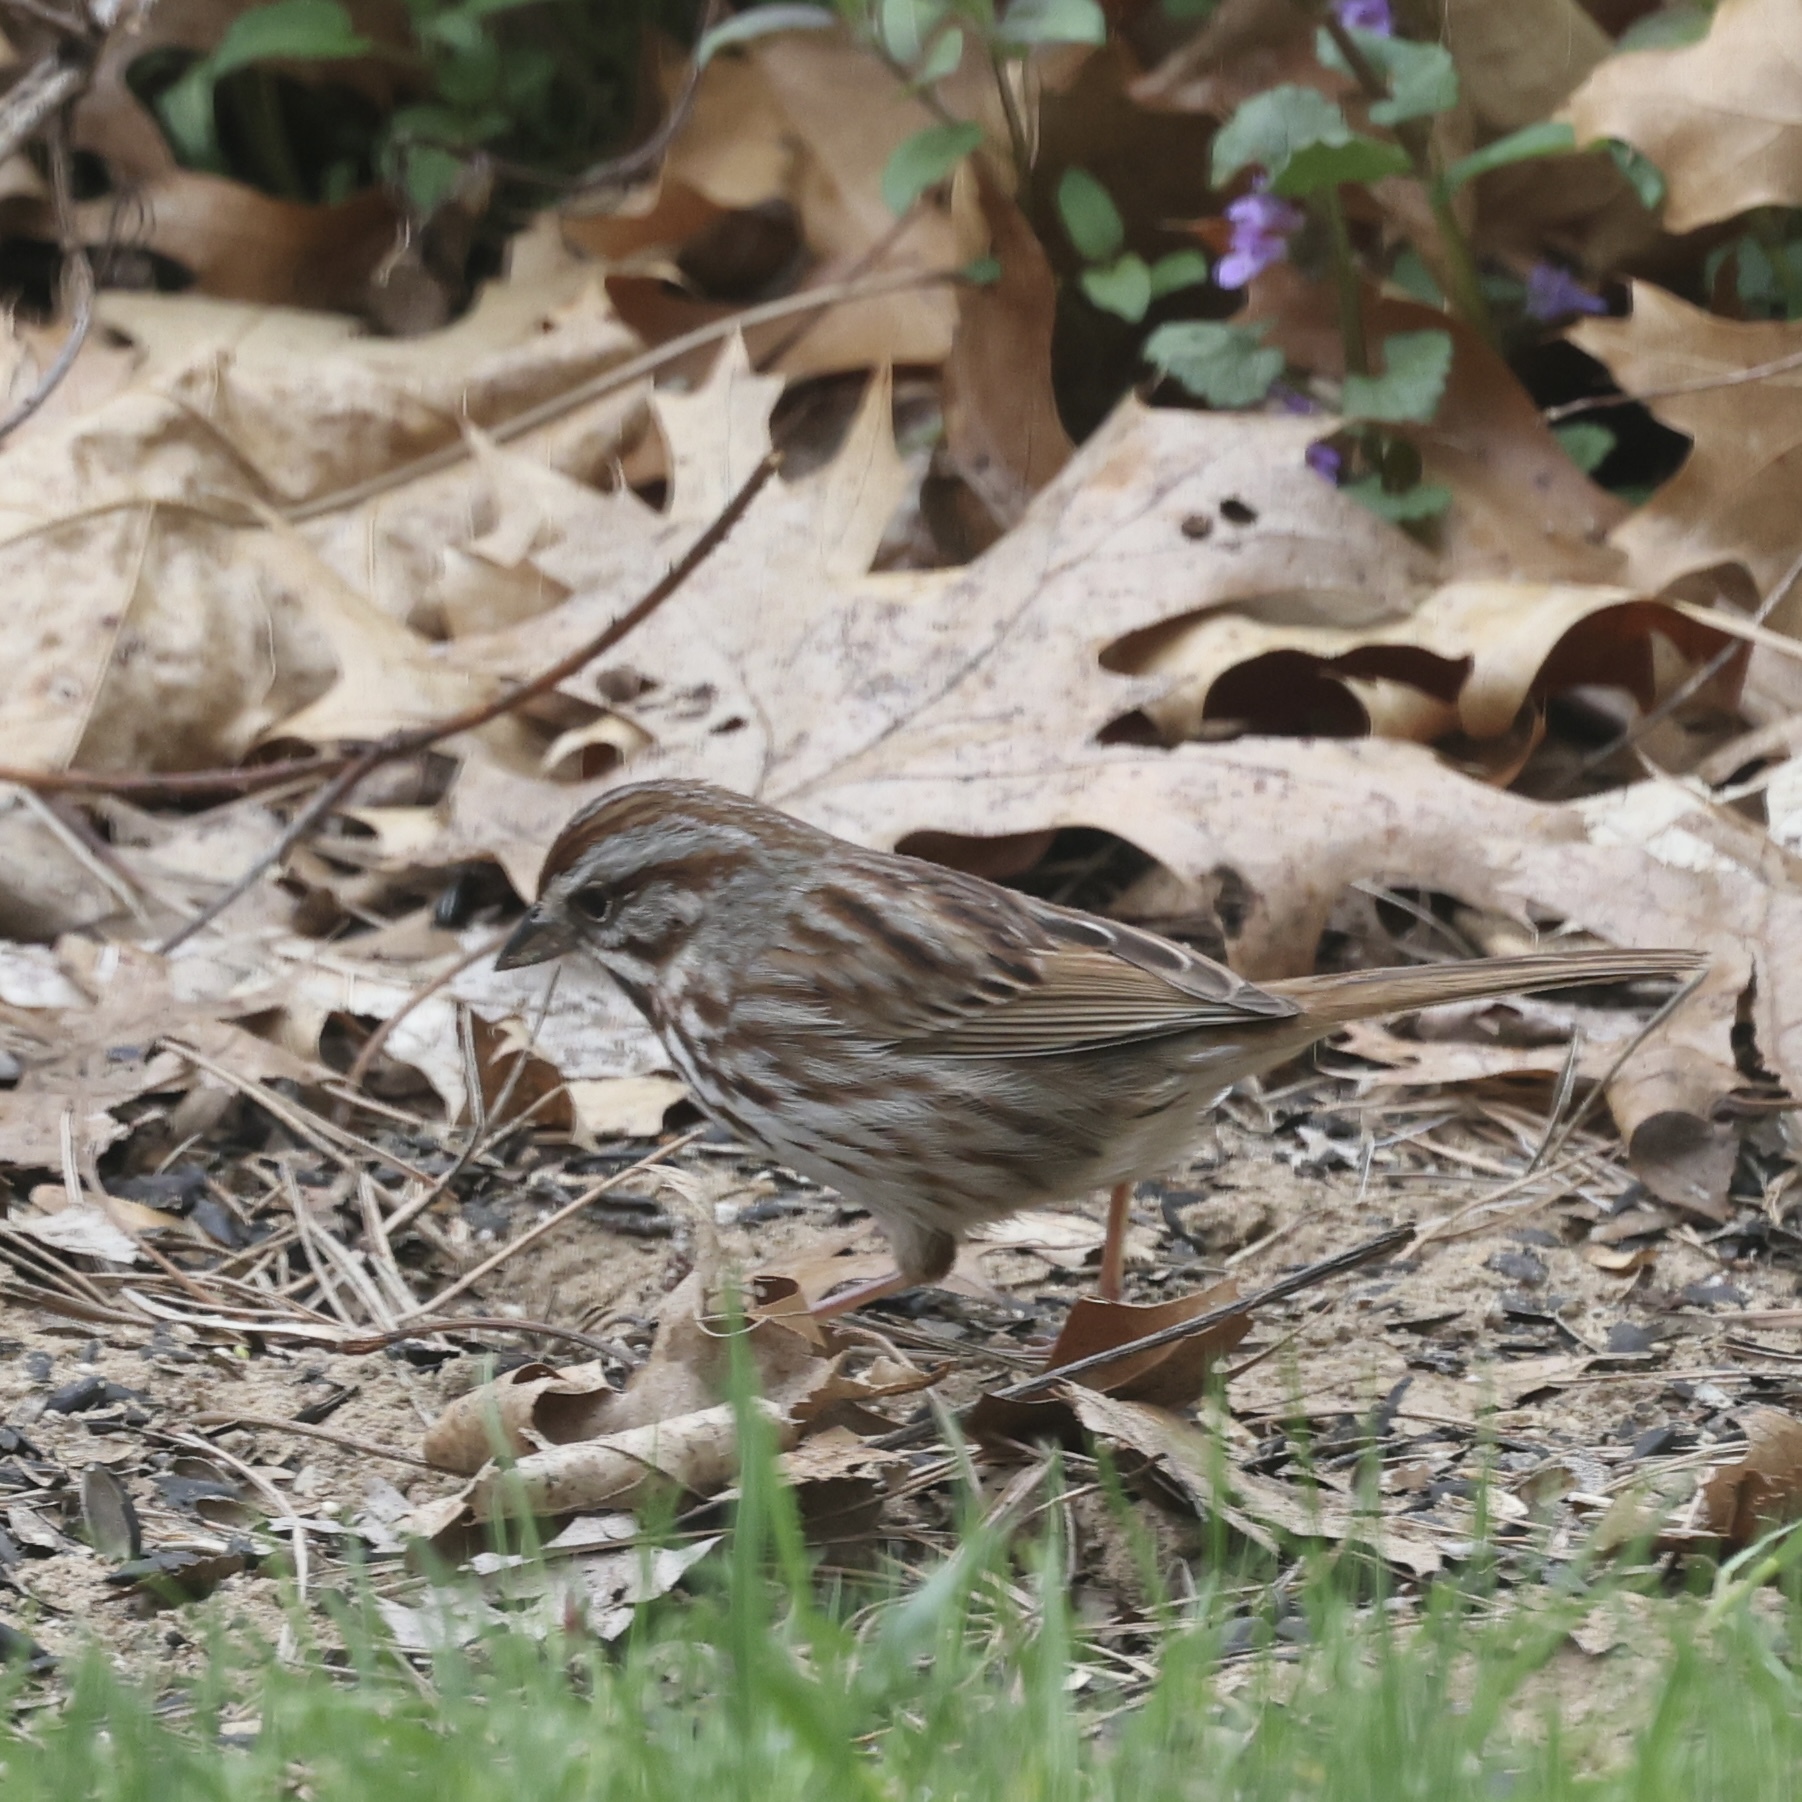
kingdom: Animalia
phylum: Chordata
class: Aves
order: Passeriformes
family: Passerellidae
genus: Melospiza
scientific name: Melospiza melodia
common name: Song sparrow
